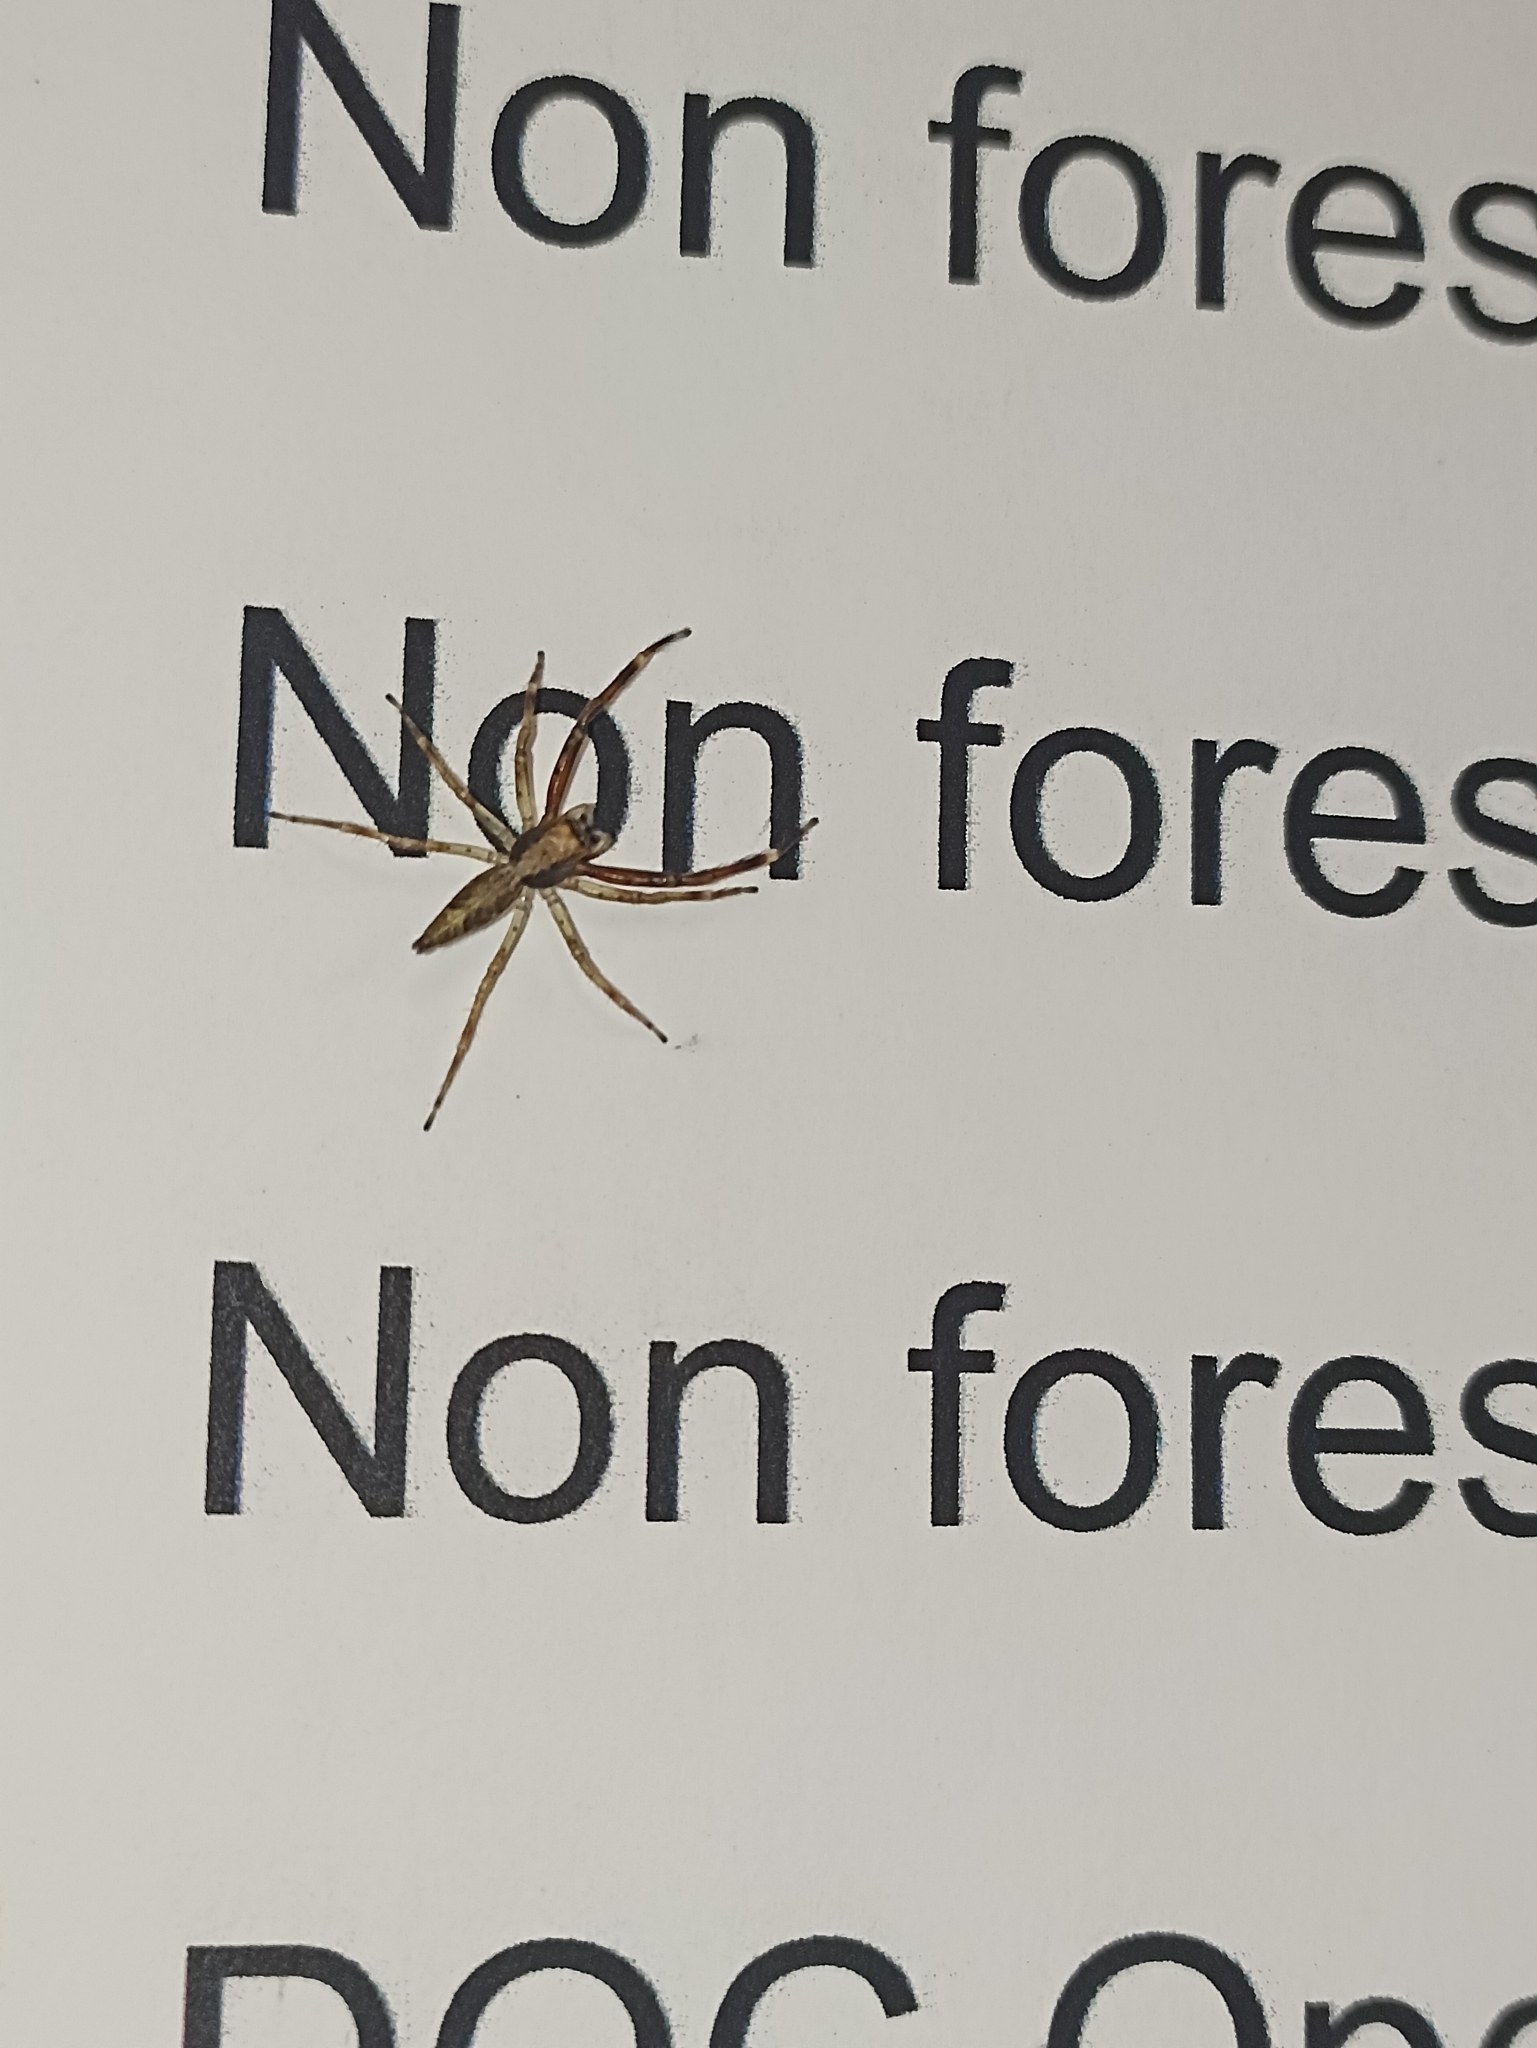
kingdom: Animalia
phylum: Arthropoda
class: Arachnida
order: Araneae
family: Salticidae
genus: Helpis
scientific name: Helpis minitabunda
